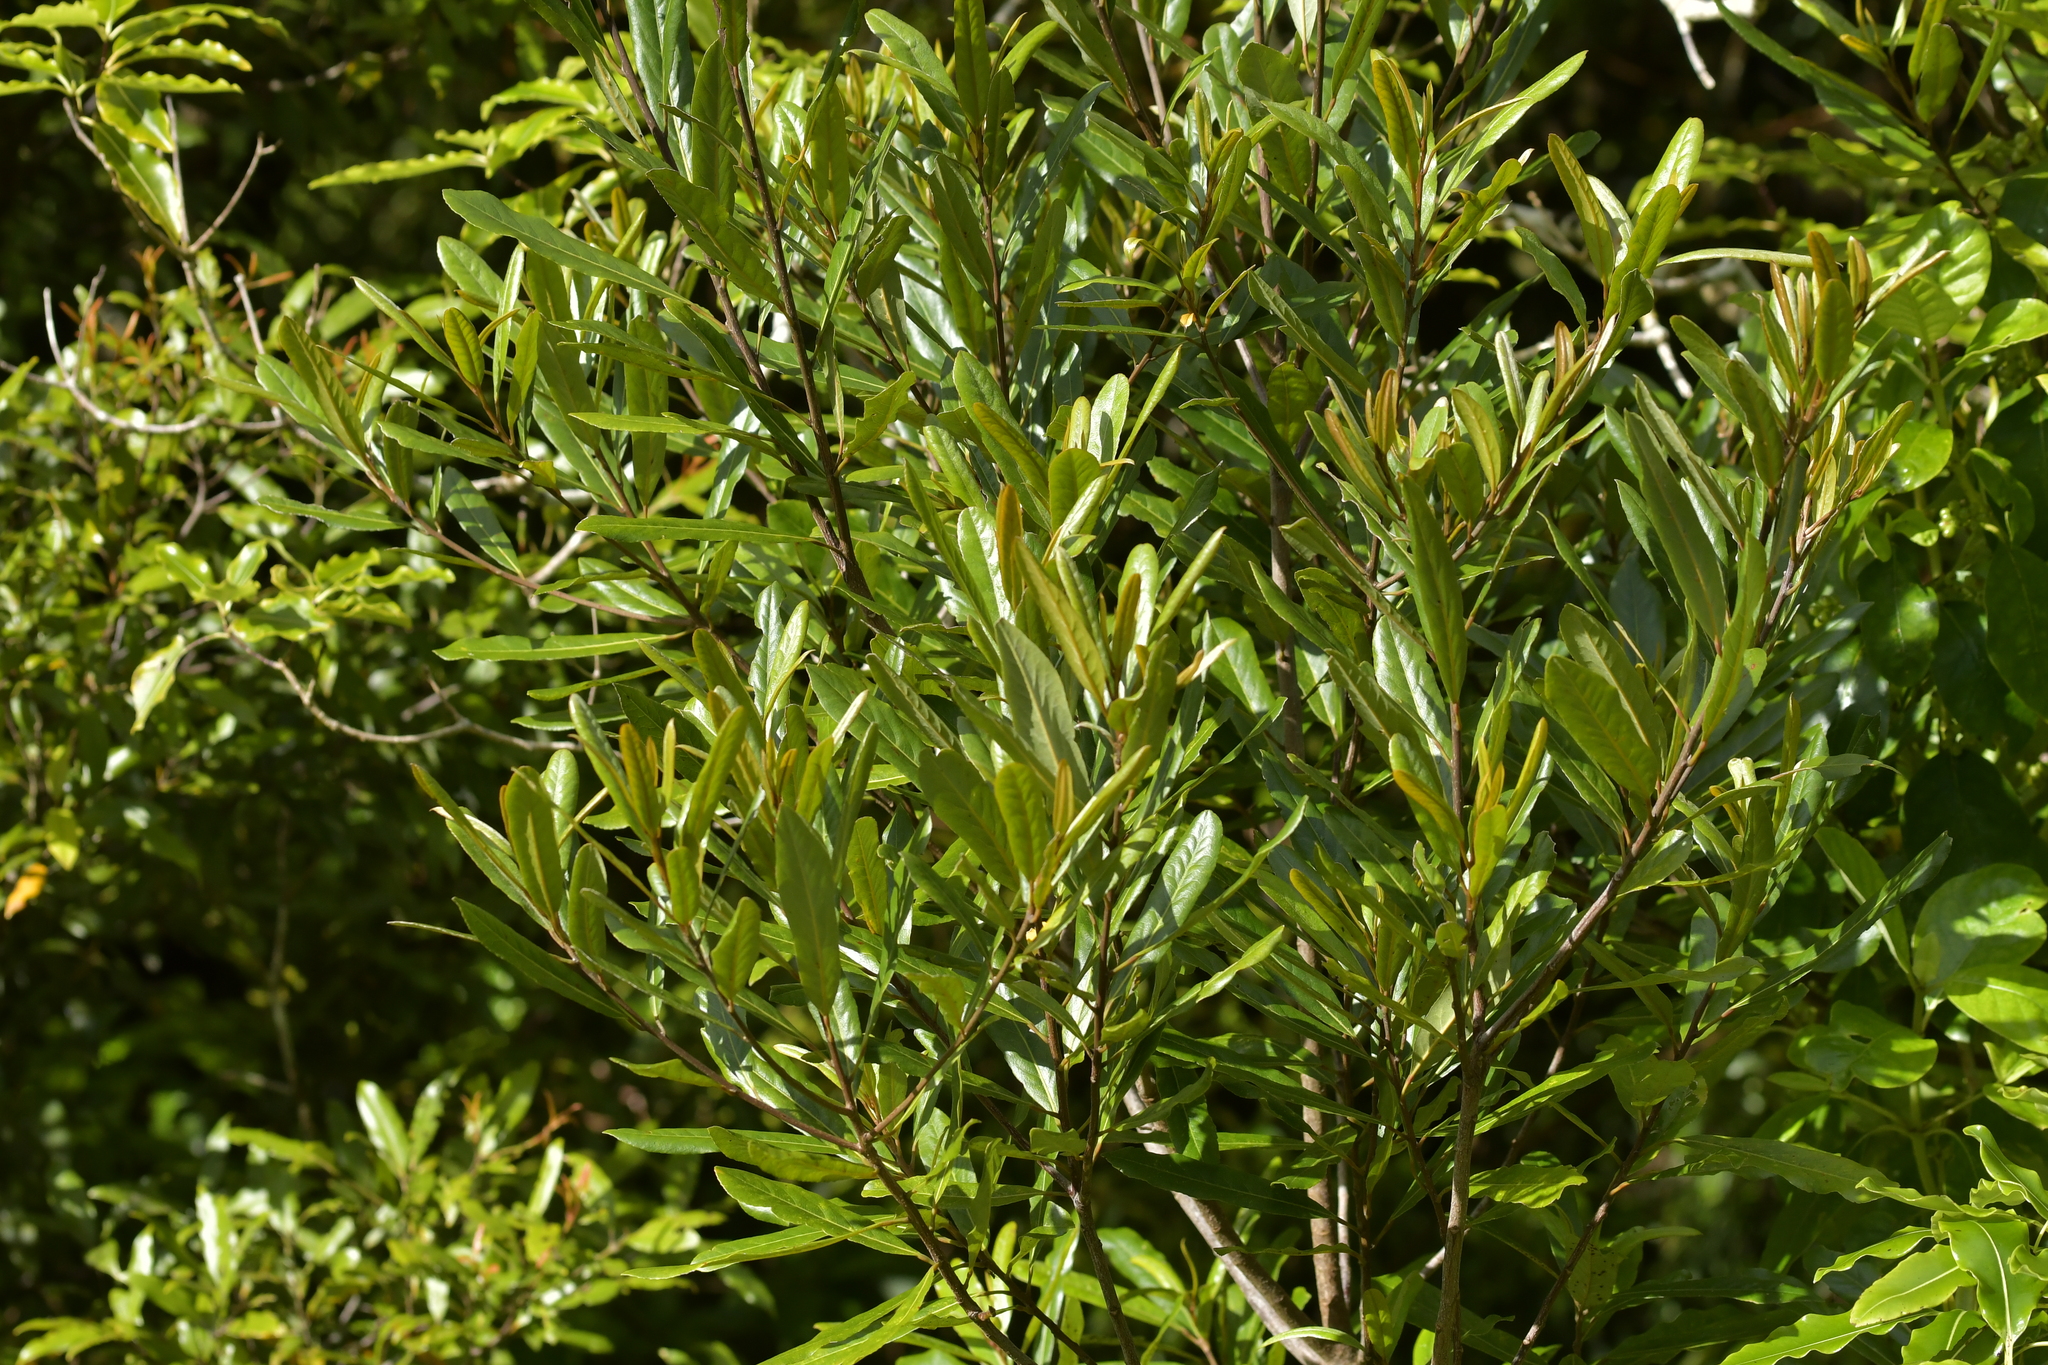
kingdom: Plantae
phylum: Tracheophyta
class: Magnoliopsida
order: Ericales
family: Primulaceae
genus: Myrsine
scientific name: Myrsine salicina
